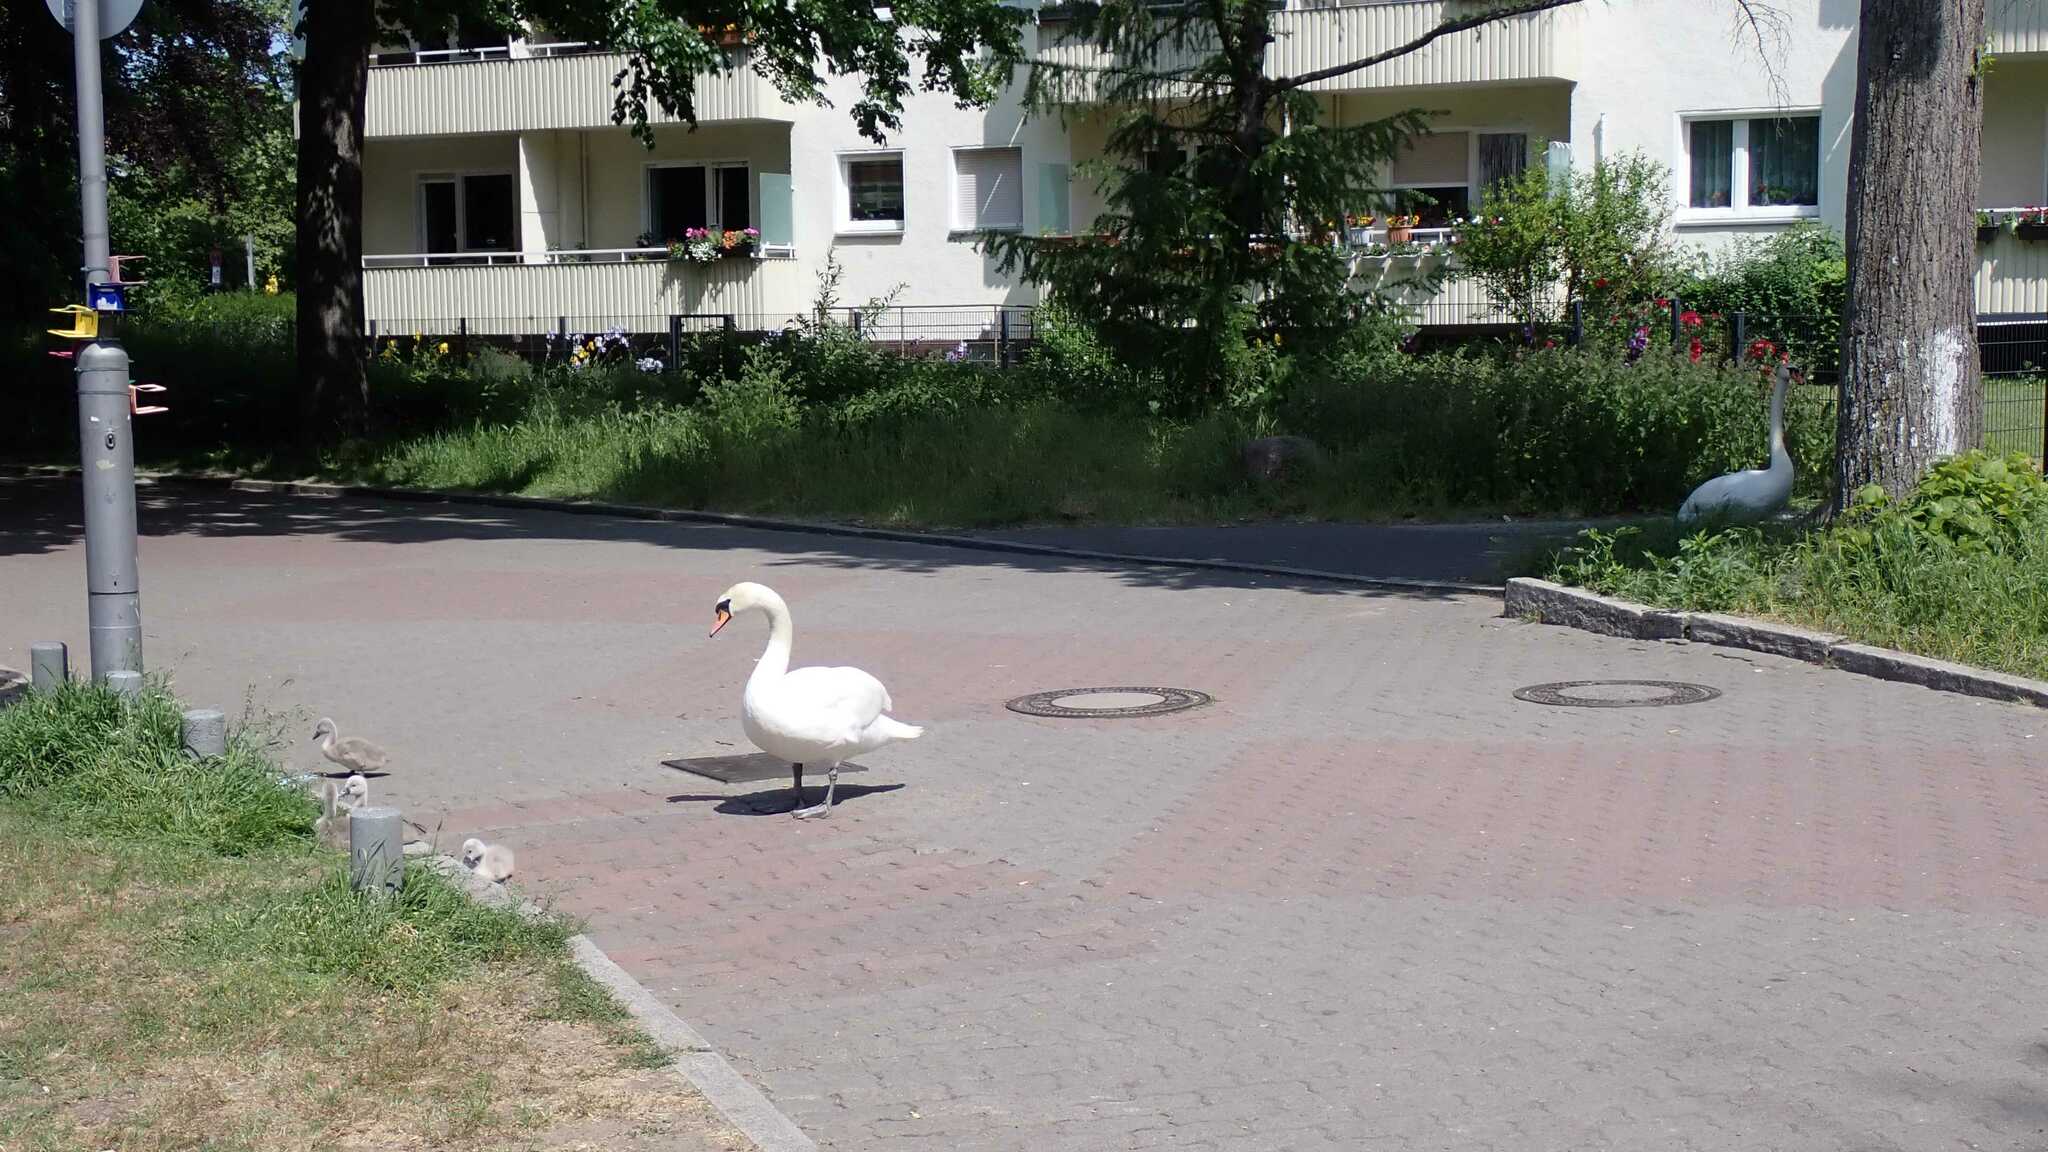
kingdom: Animalia
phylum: Chordata
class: Aves
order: Anseriformes
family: Anatidae
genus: Cygnus
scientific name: Cygnus olor
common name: Mute swan
